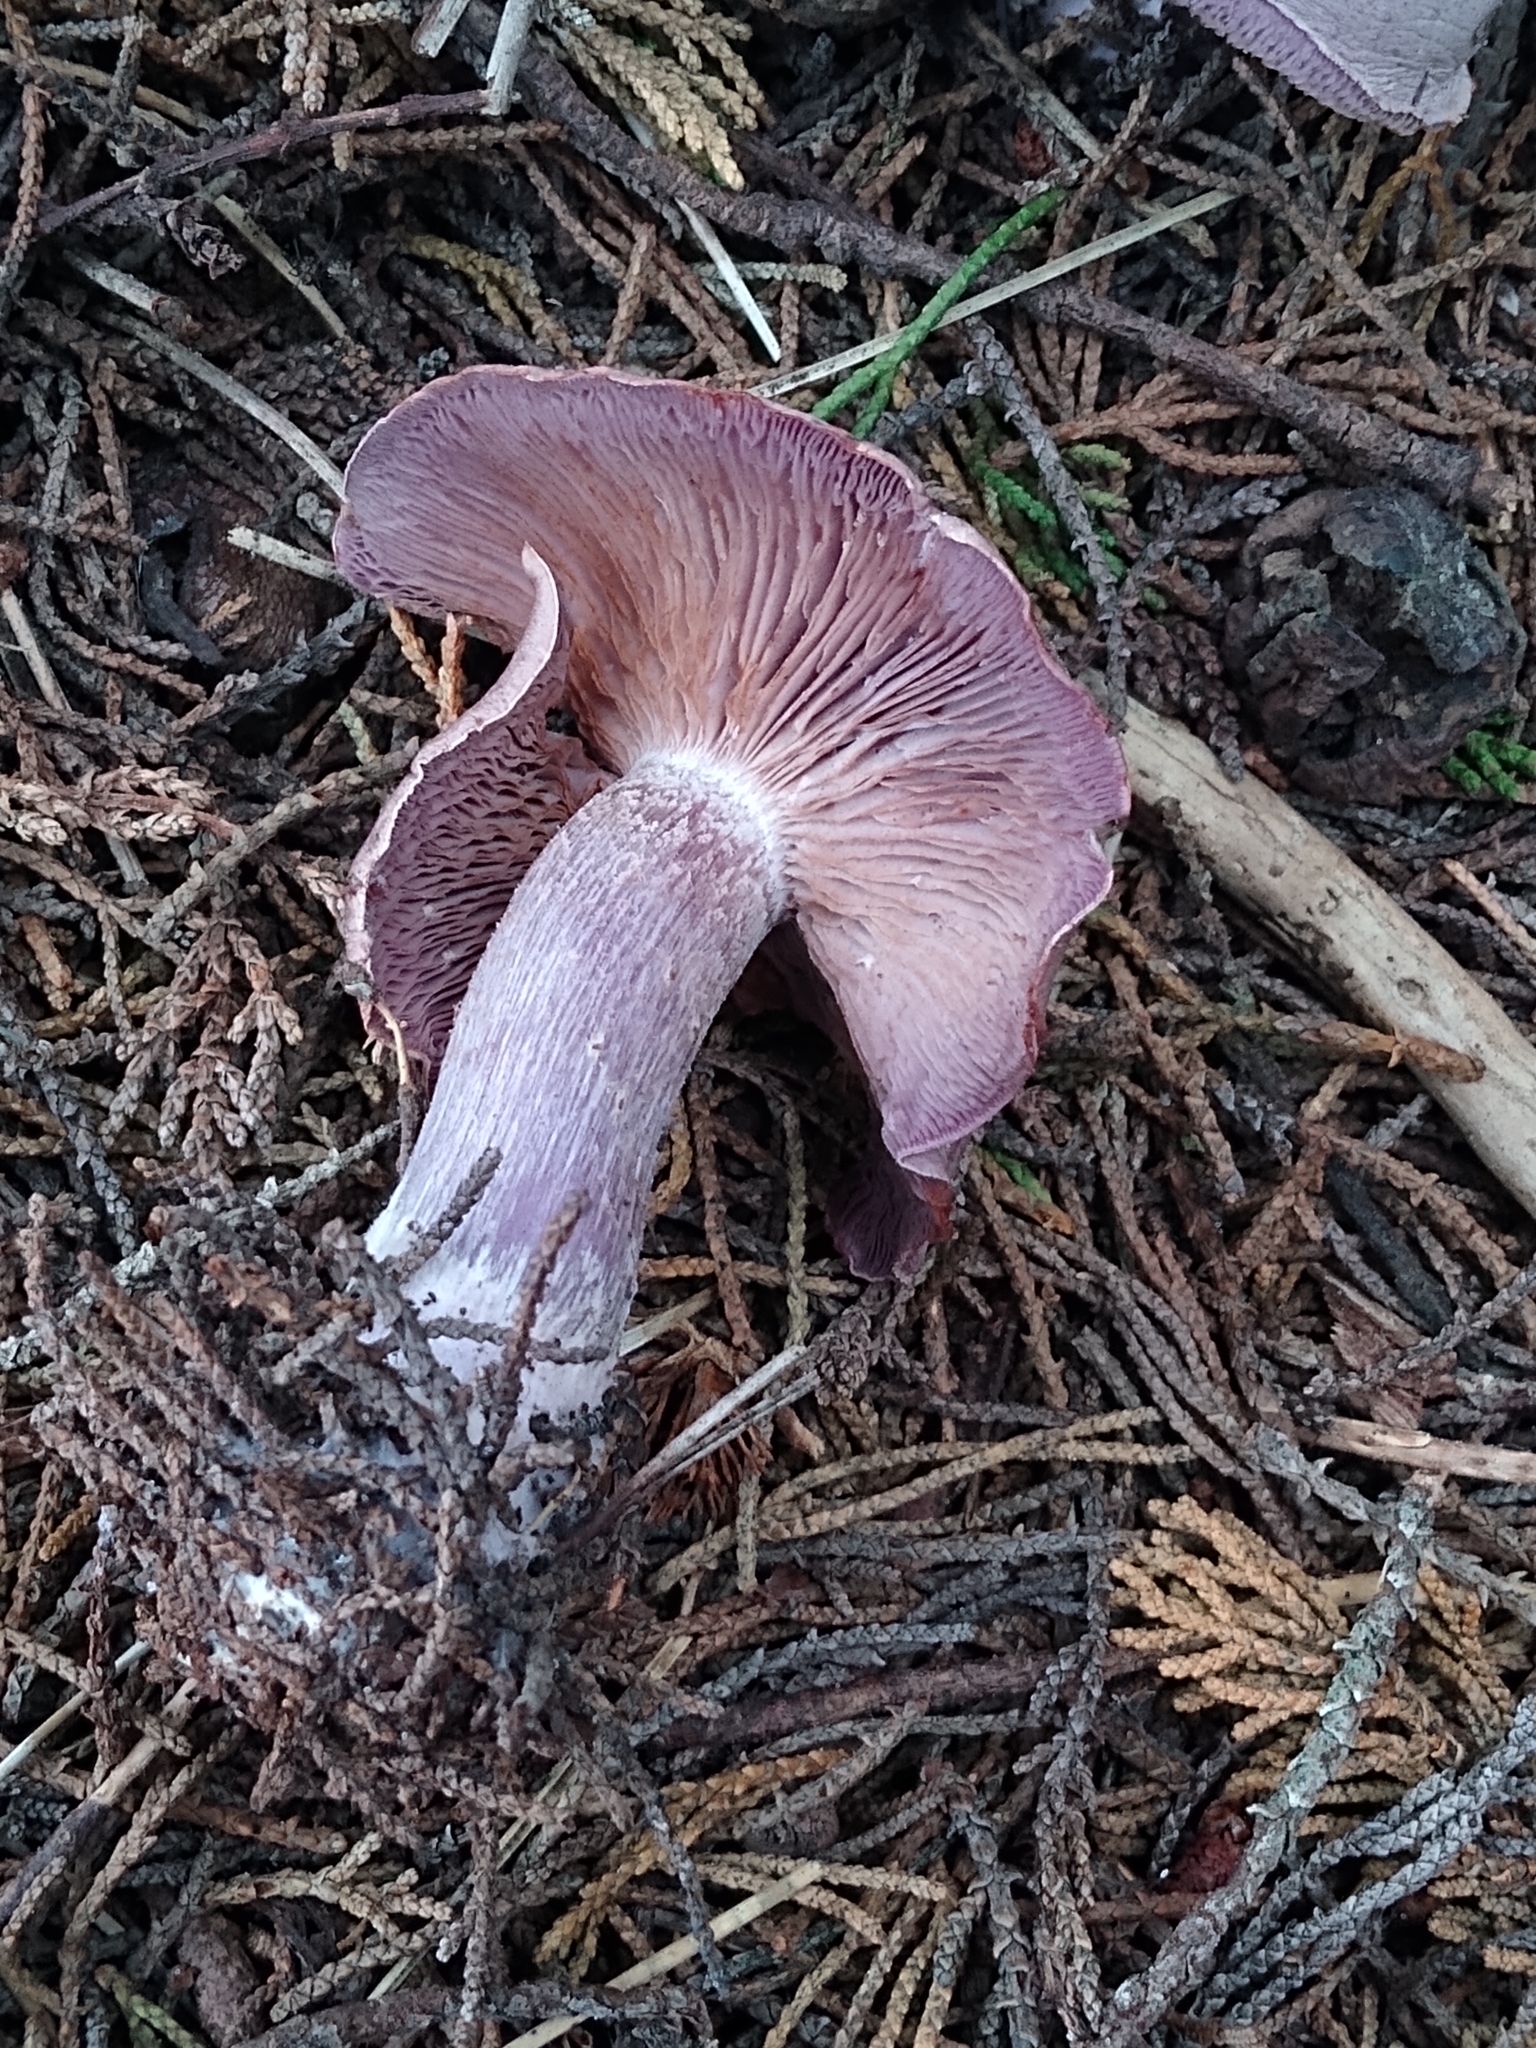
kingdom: Fungi
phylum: Basidiomycota
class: Agaricomycetes
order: Agaricales
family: Tricholomataceae
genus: Collybia
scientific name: Collybia
